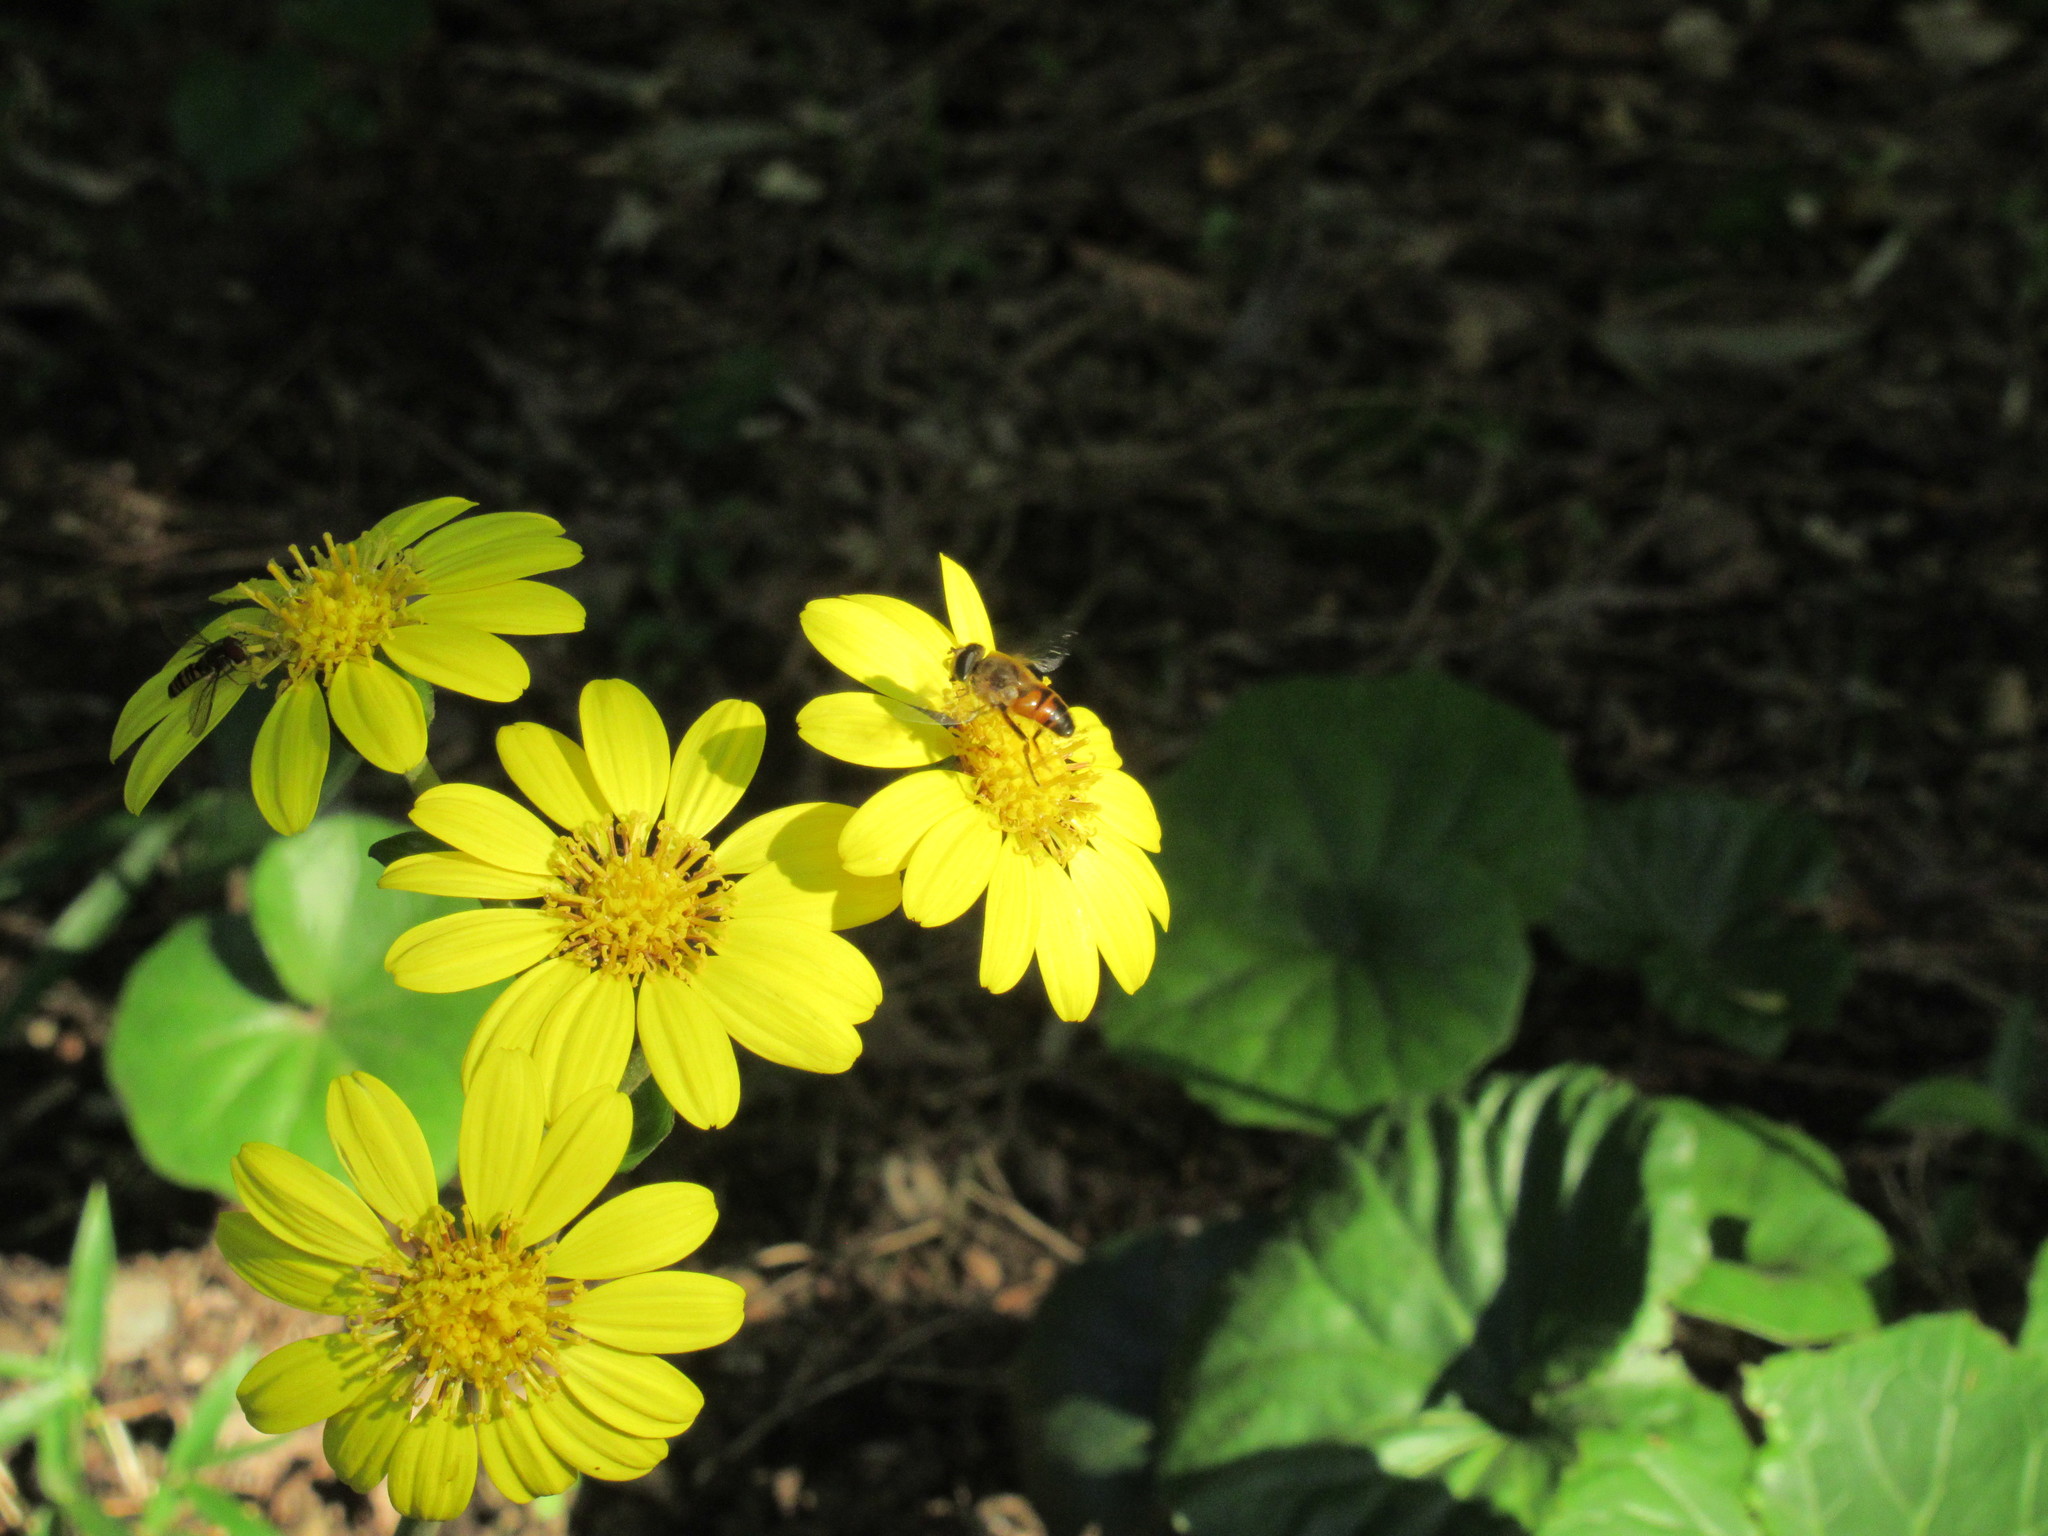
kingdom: Animalia
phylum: Arthropoda
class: Insecta
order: Diptera
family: Syrphidae
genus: Eristalis
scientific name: Eristalis tenax
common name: Drone fly
